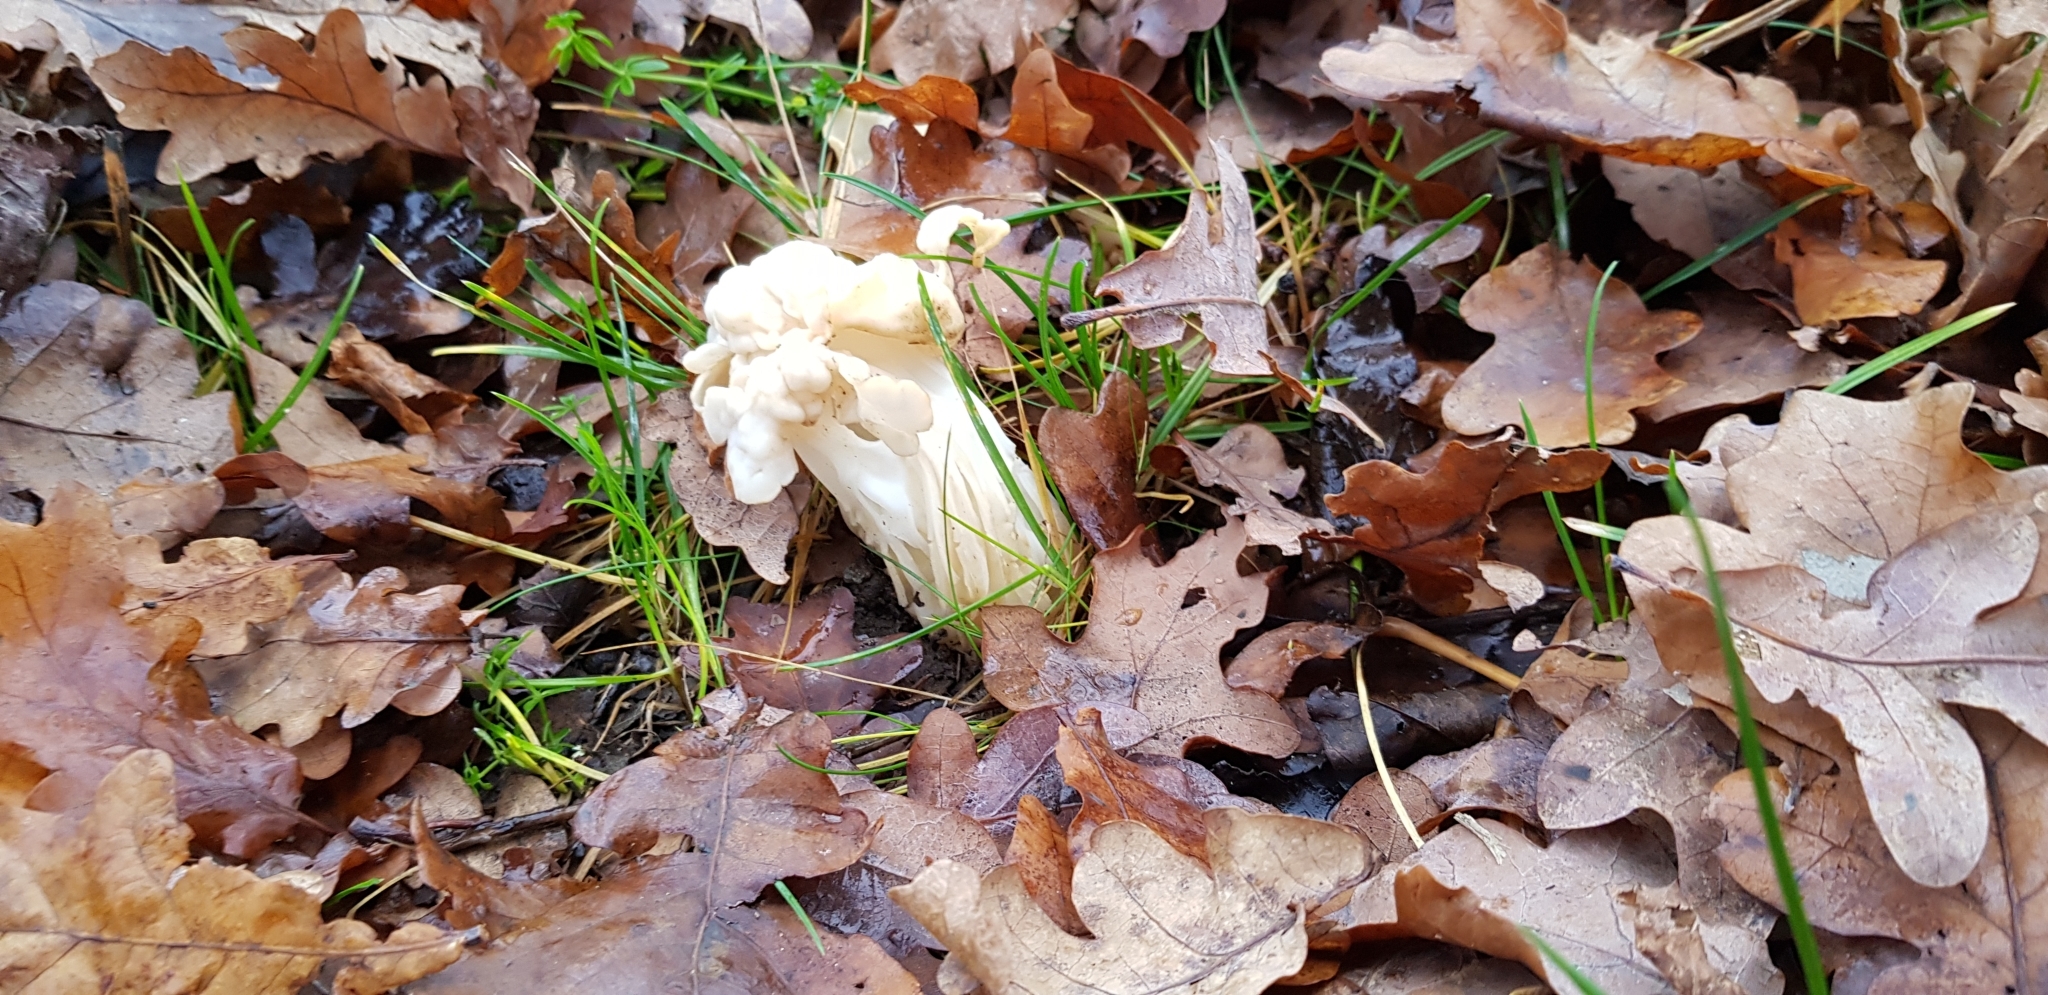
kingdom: Fungi
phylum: Ascomycota
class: Pezizomycetes
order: Pezizales
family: Helvellaceae
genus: Helvella
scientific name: Helvella crispa
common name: White saddle
